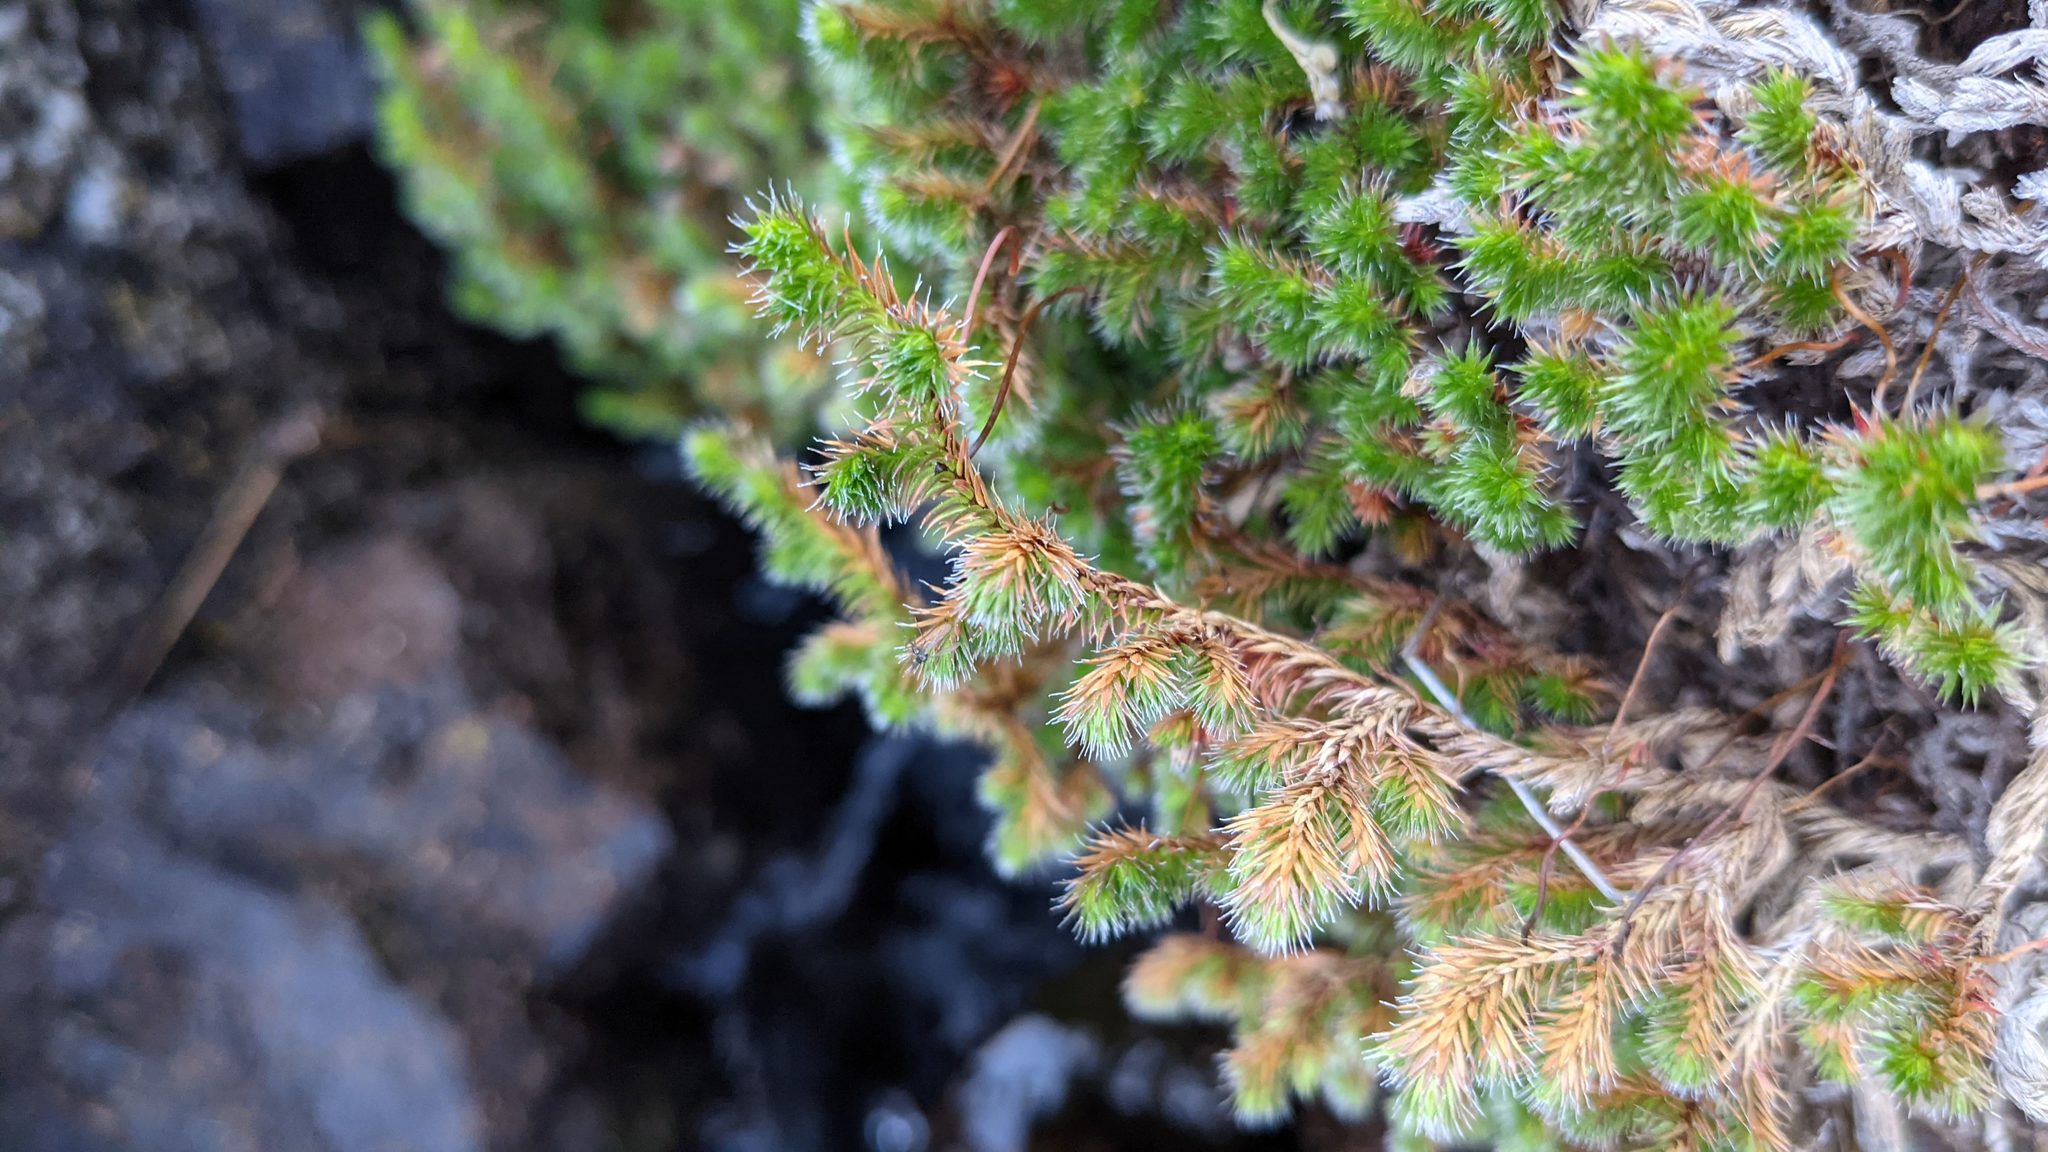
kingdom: Plantae
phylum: Tracheophyta
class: Lycopodiopsida
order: Selaginellales
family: Selaginellaceae
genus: Selaginella
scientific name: Selaginella hansenii
